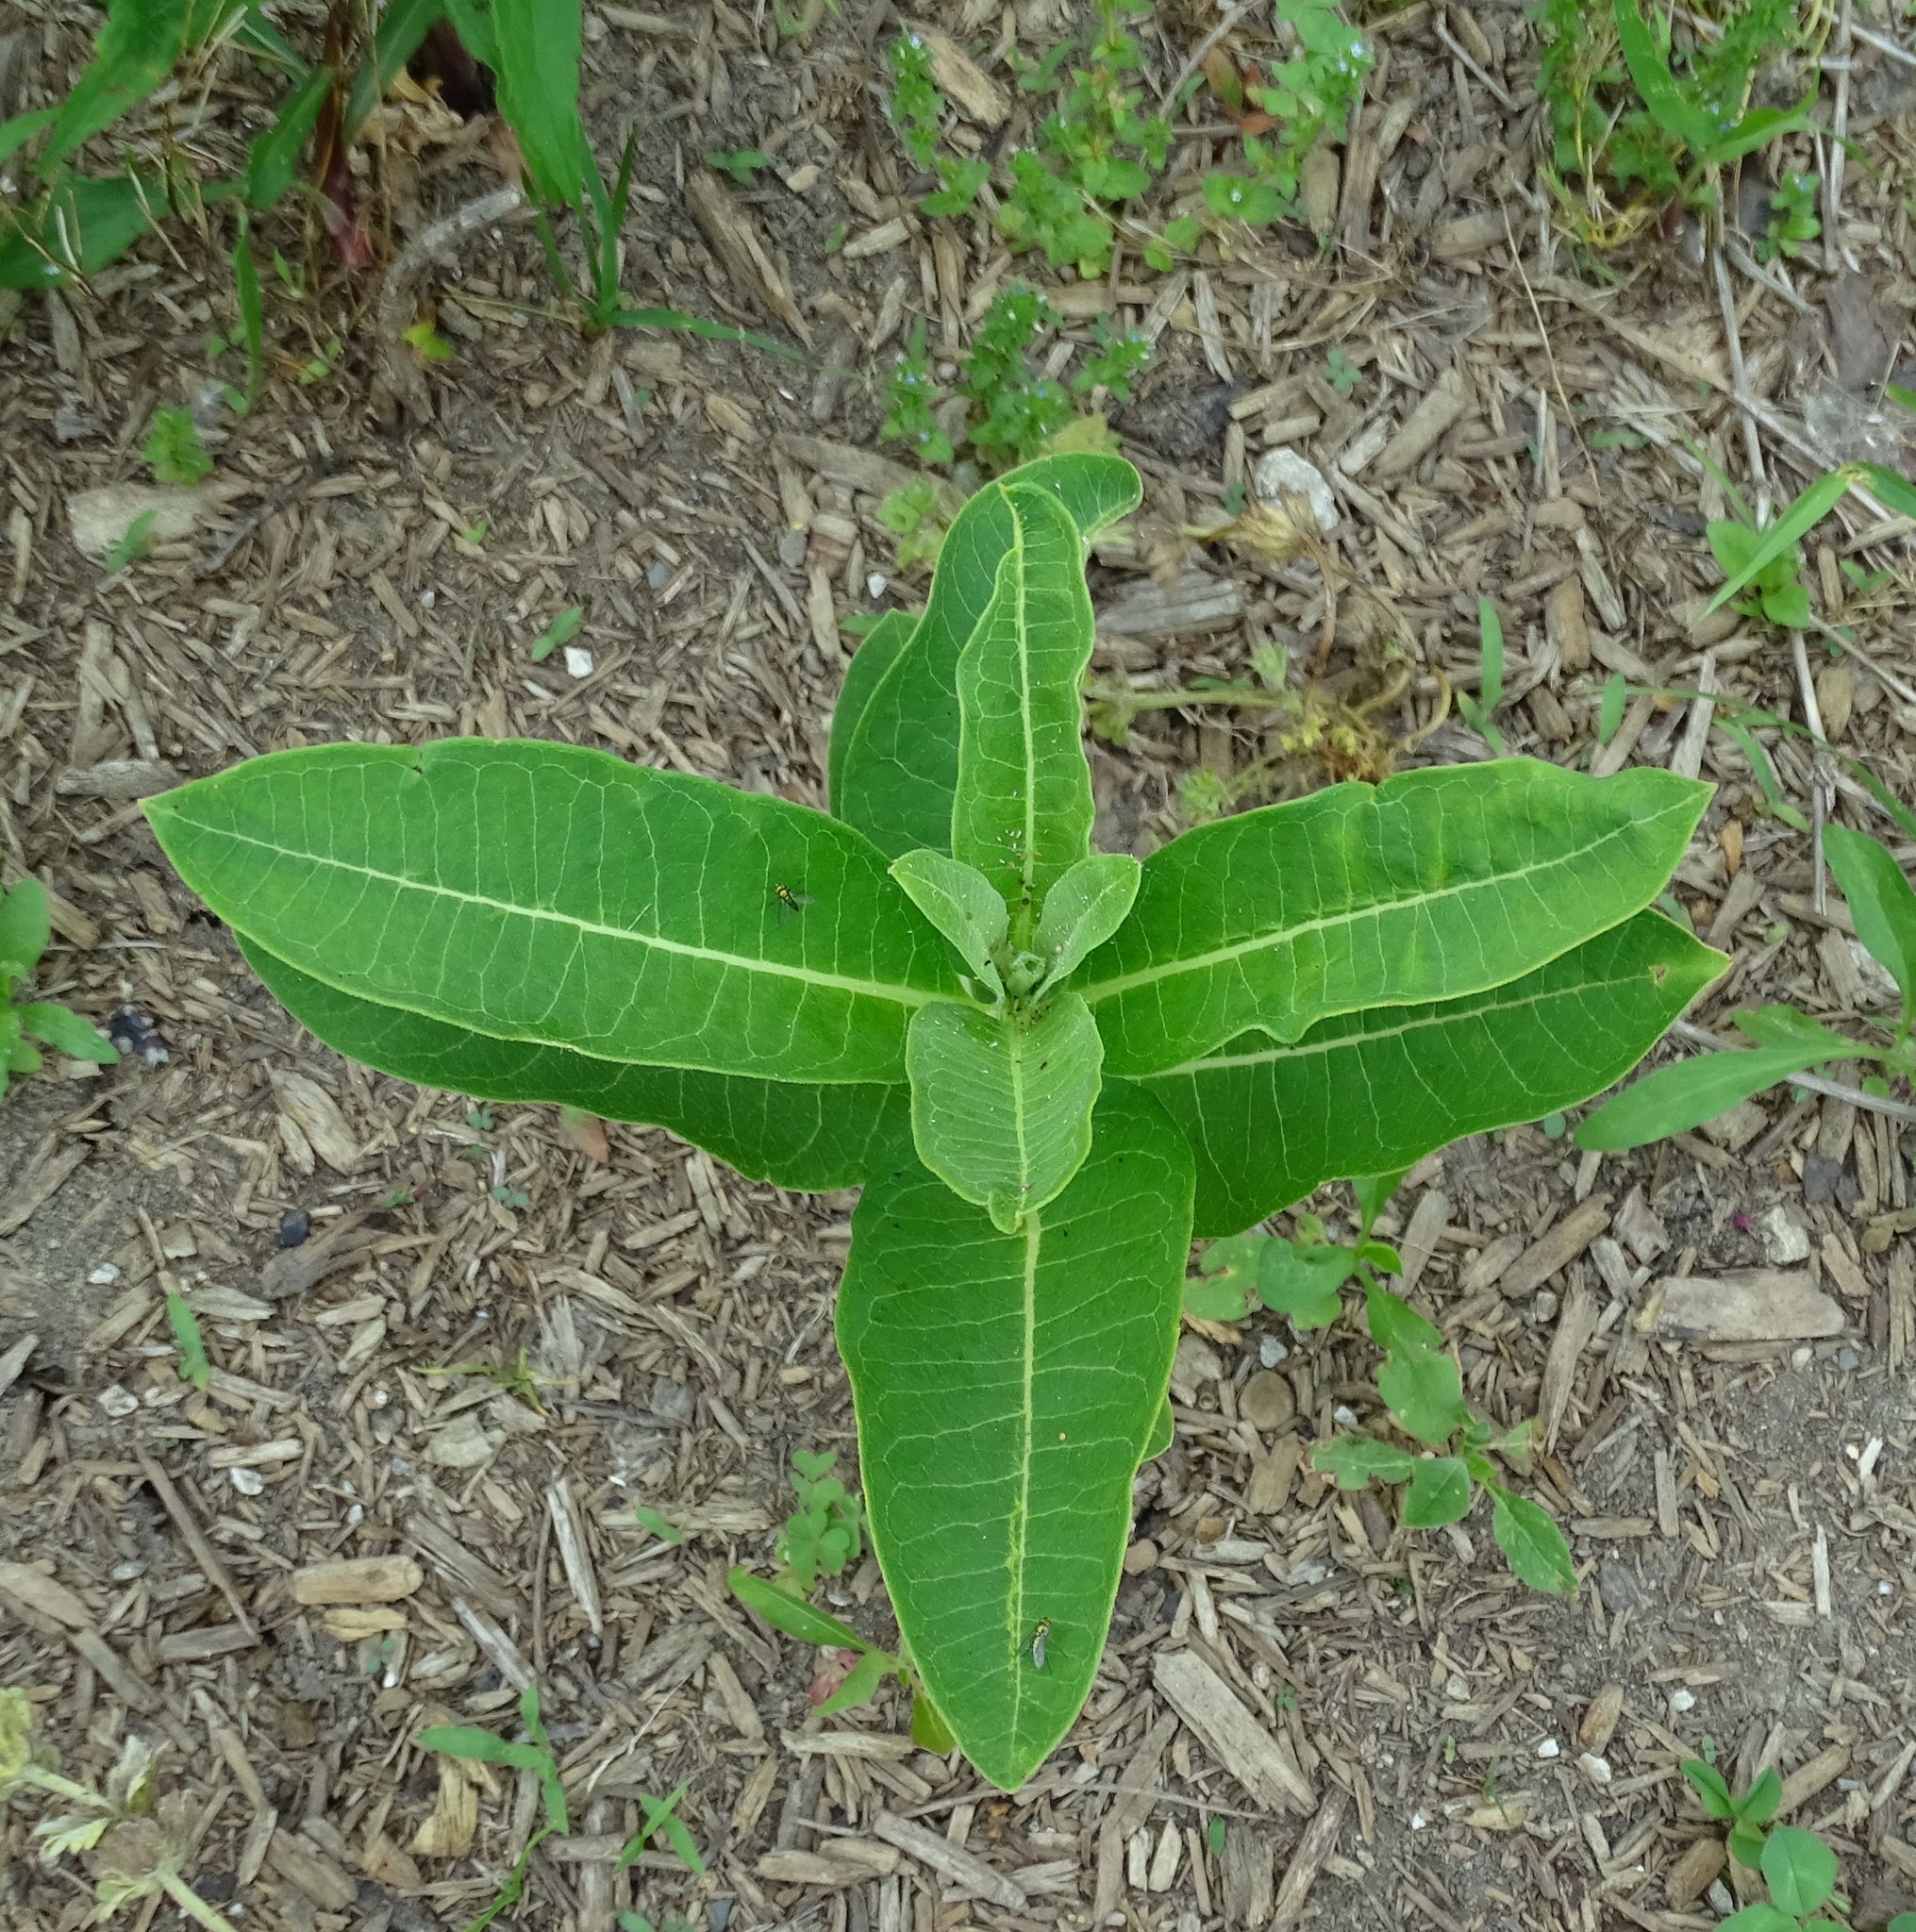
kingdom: Plantae
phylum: Tracheophyta
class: Magnoliopsida
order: Gentianales
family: Apocynaceae
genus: Asclepias
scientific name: Asclepias syriaca
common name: Common milkweed
